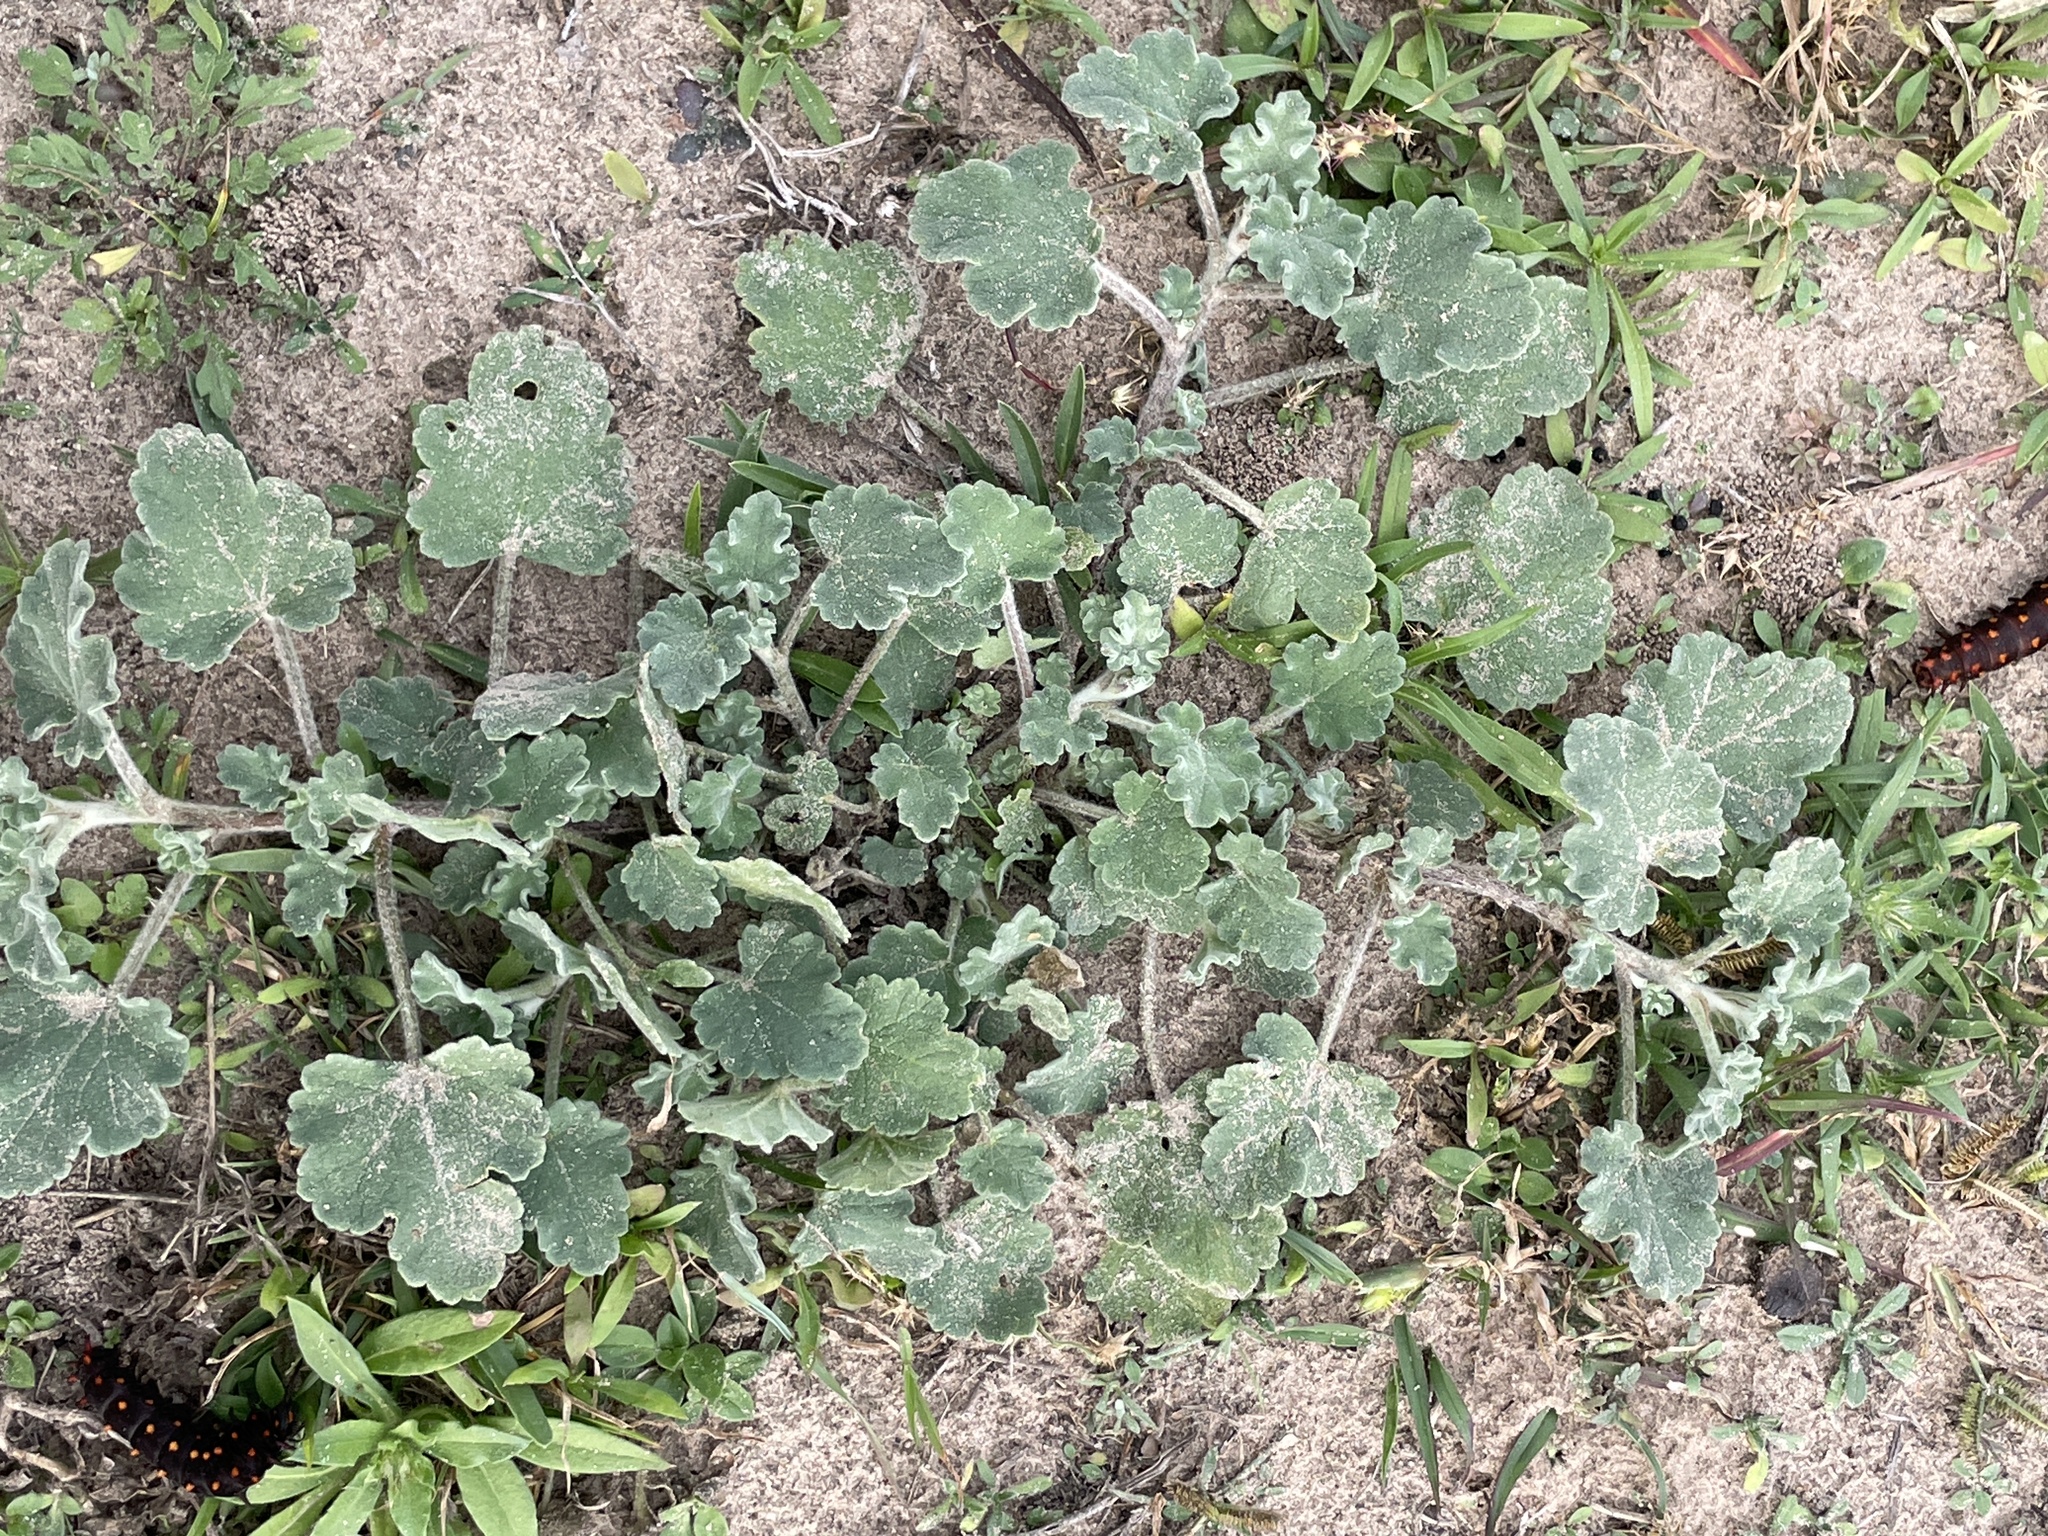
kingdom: Plantae
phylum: Tracheophyta
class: Magnoliopsida
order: Malvales
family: Malvaceae
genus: Sphaeralcea
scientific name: Sphaeralcea lindheimeri
